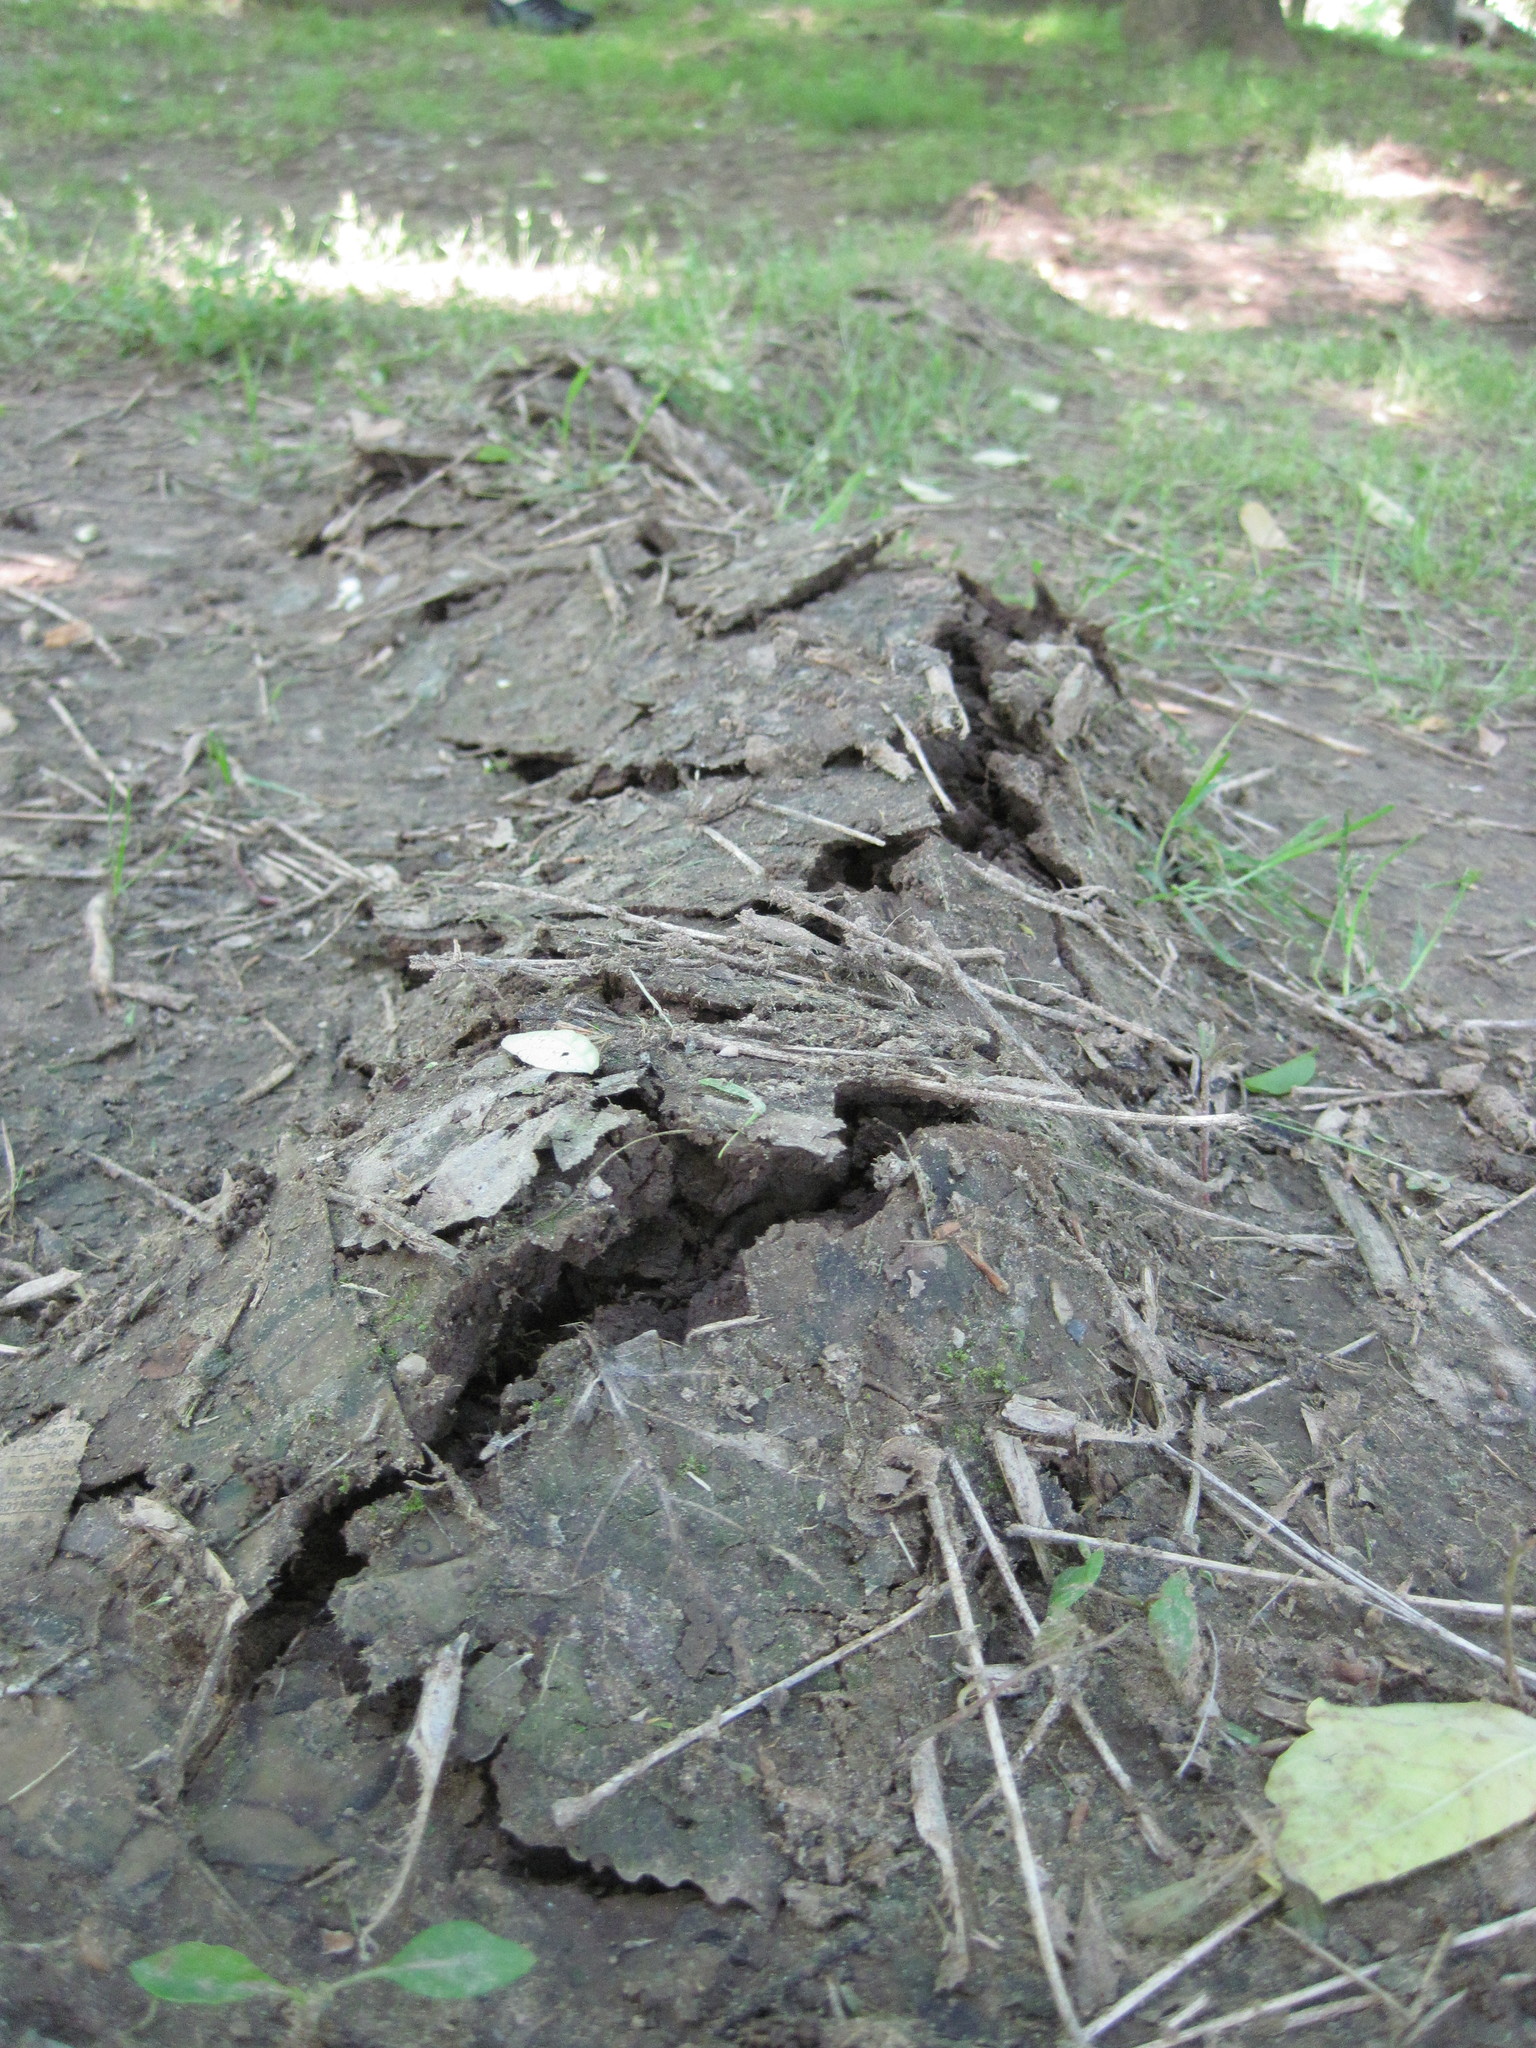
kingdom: Animalia
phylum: Chordata
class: Mammalia
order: Soricomorpha
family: Talpidae
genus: Scalopus
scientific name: Scalopus aquaticus
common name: Eastern mole
